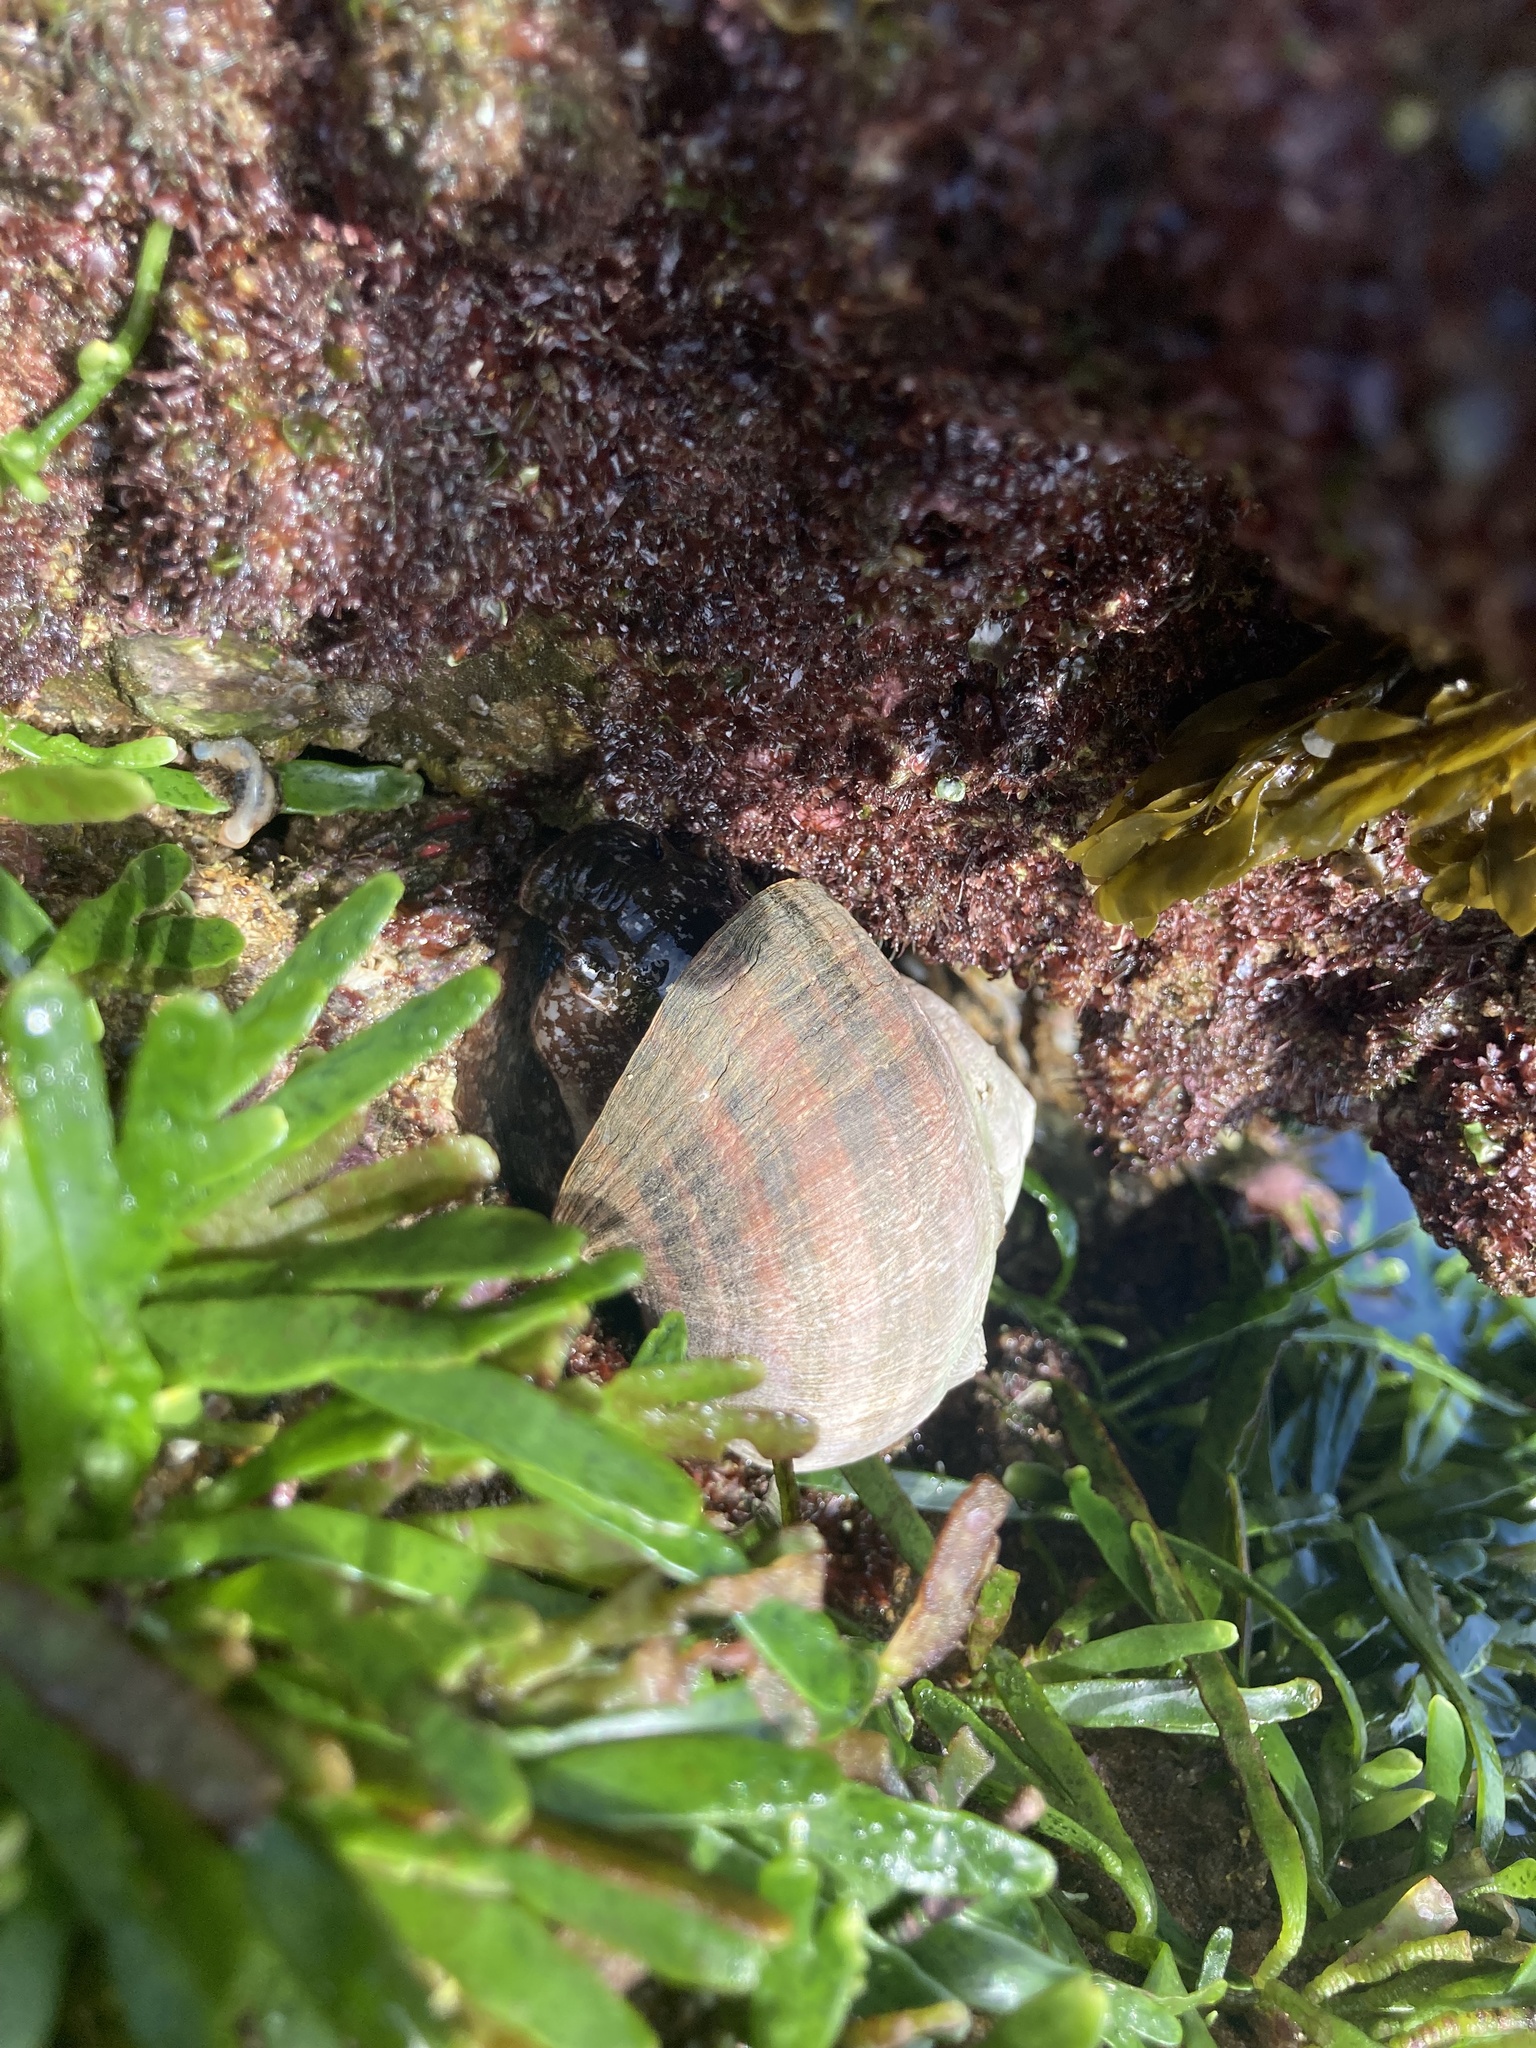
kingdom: Animalia
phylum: Mollusca
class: Gastropoda
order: Trochida
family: Turbinidae
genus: Turbo
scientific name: Turbo militaris
